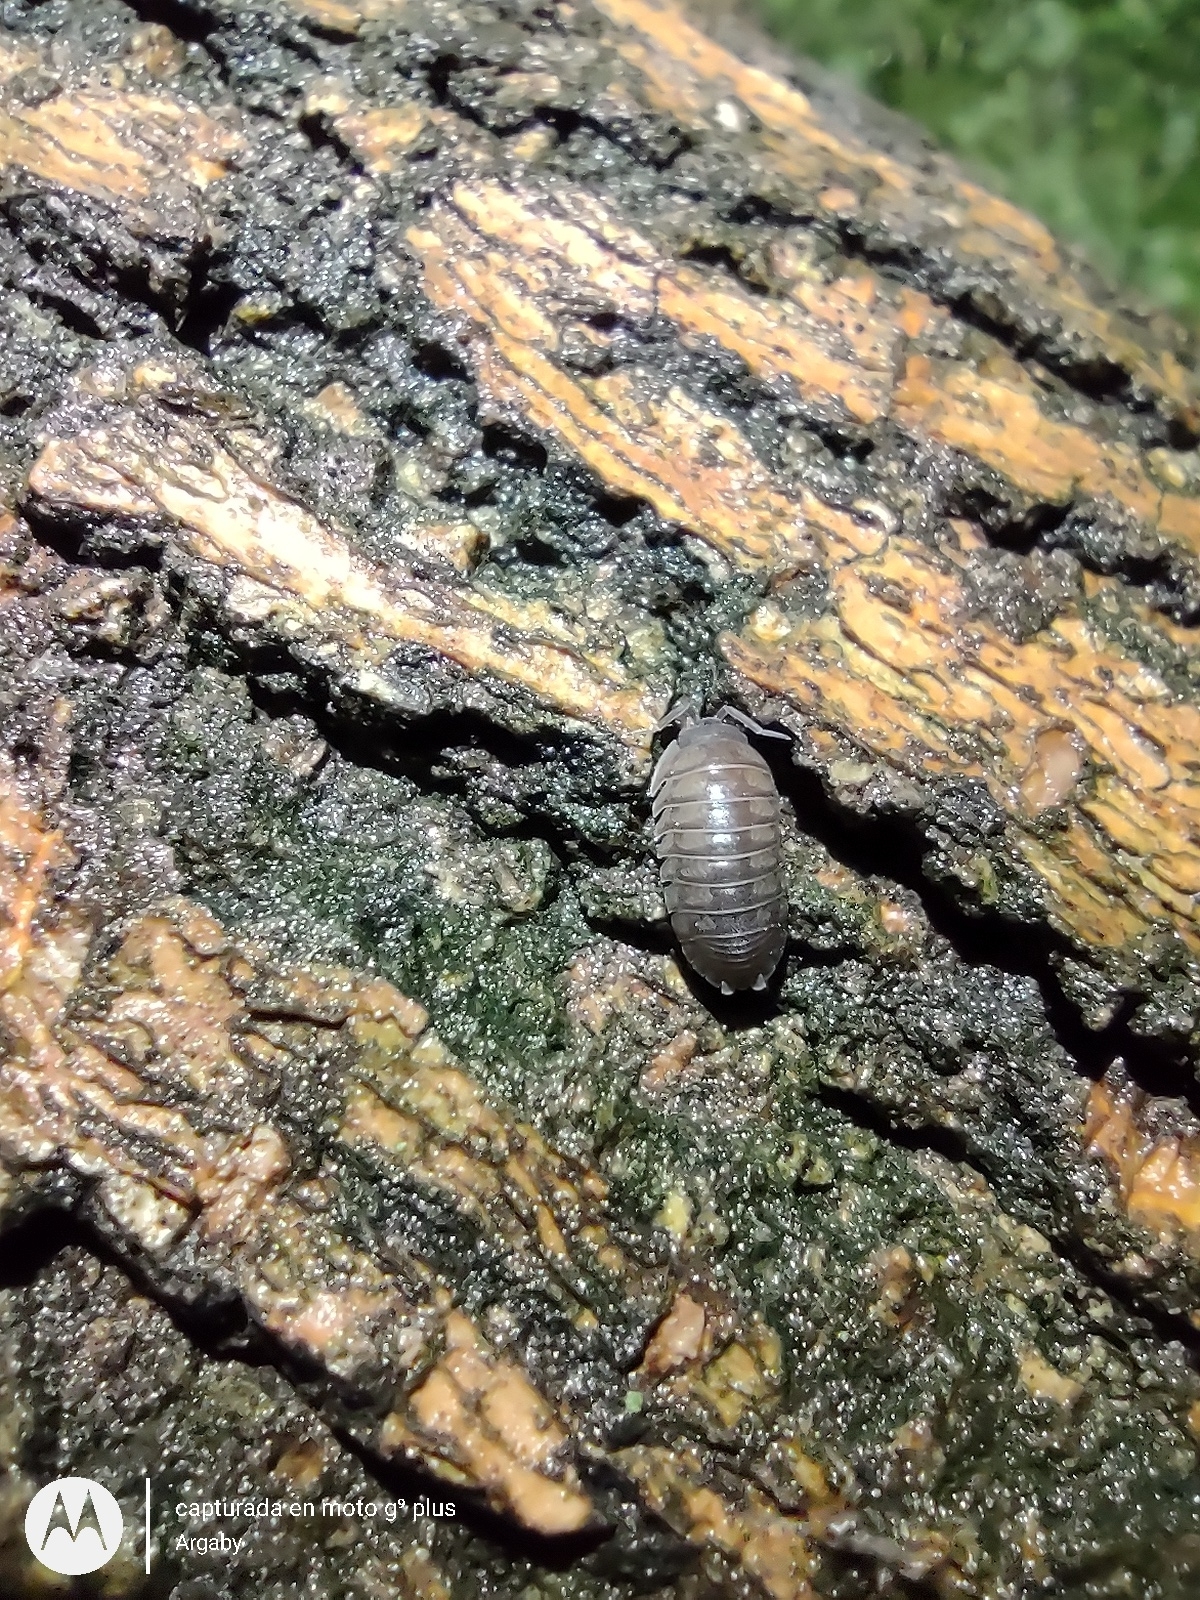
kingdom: Animalia
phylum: Arthropoda
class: Malacostraca
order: Isopoda
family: Armadillidiidae
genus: Armadillidium
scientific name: Armadillidium nasatum
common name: Isopod
